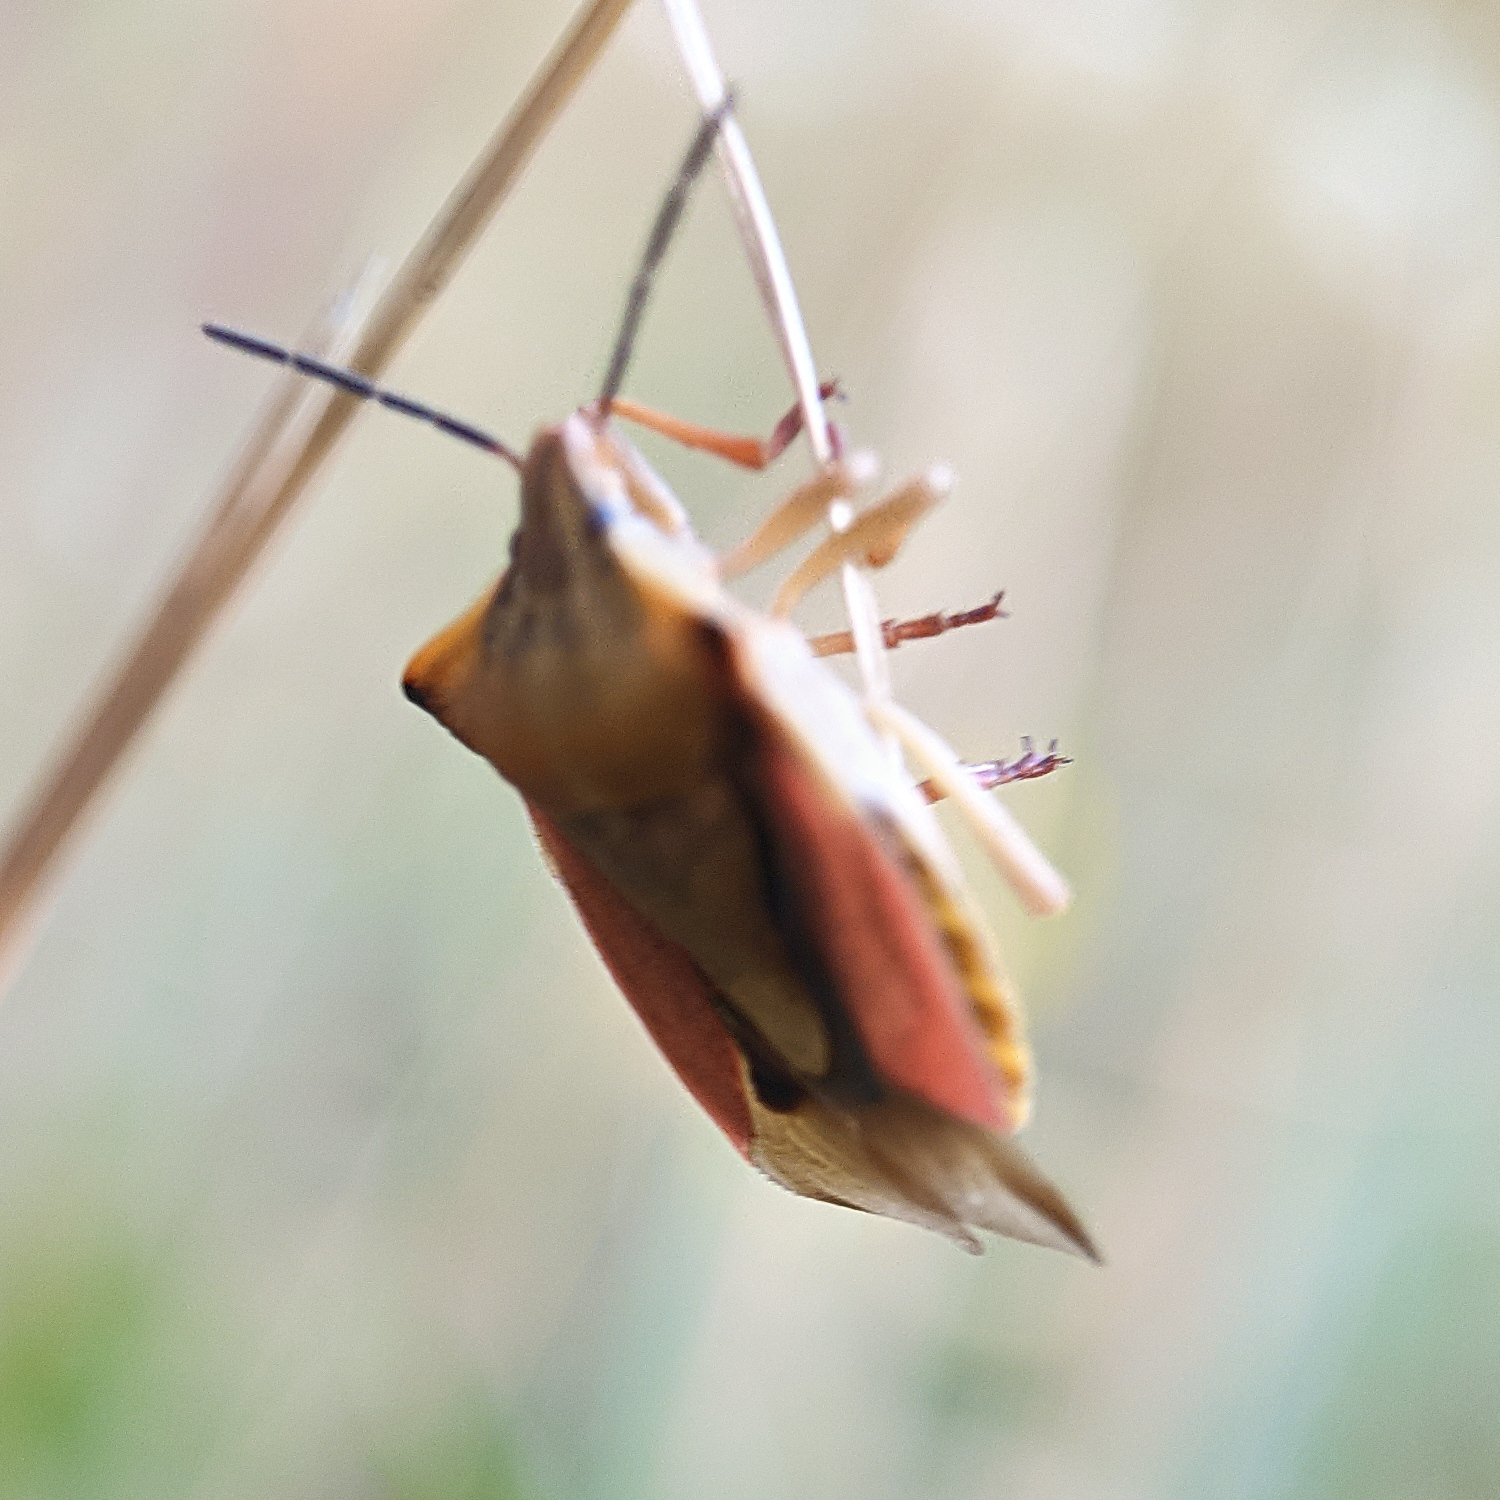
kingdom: Animalia
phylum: Arthropoda
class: Insecta
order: Hemiptera
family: Pentatomidae
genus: Carpocoris
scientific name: Carpocoris fuscispinus
